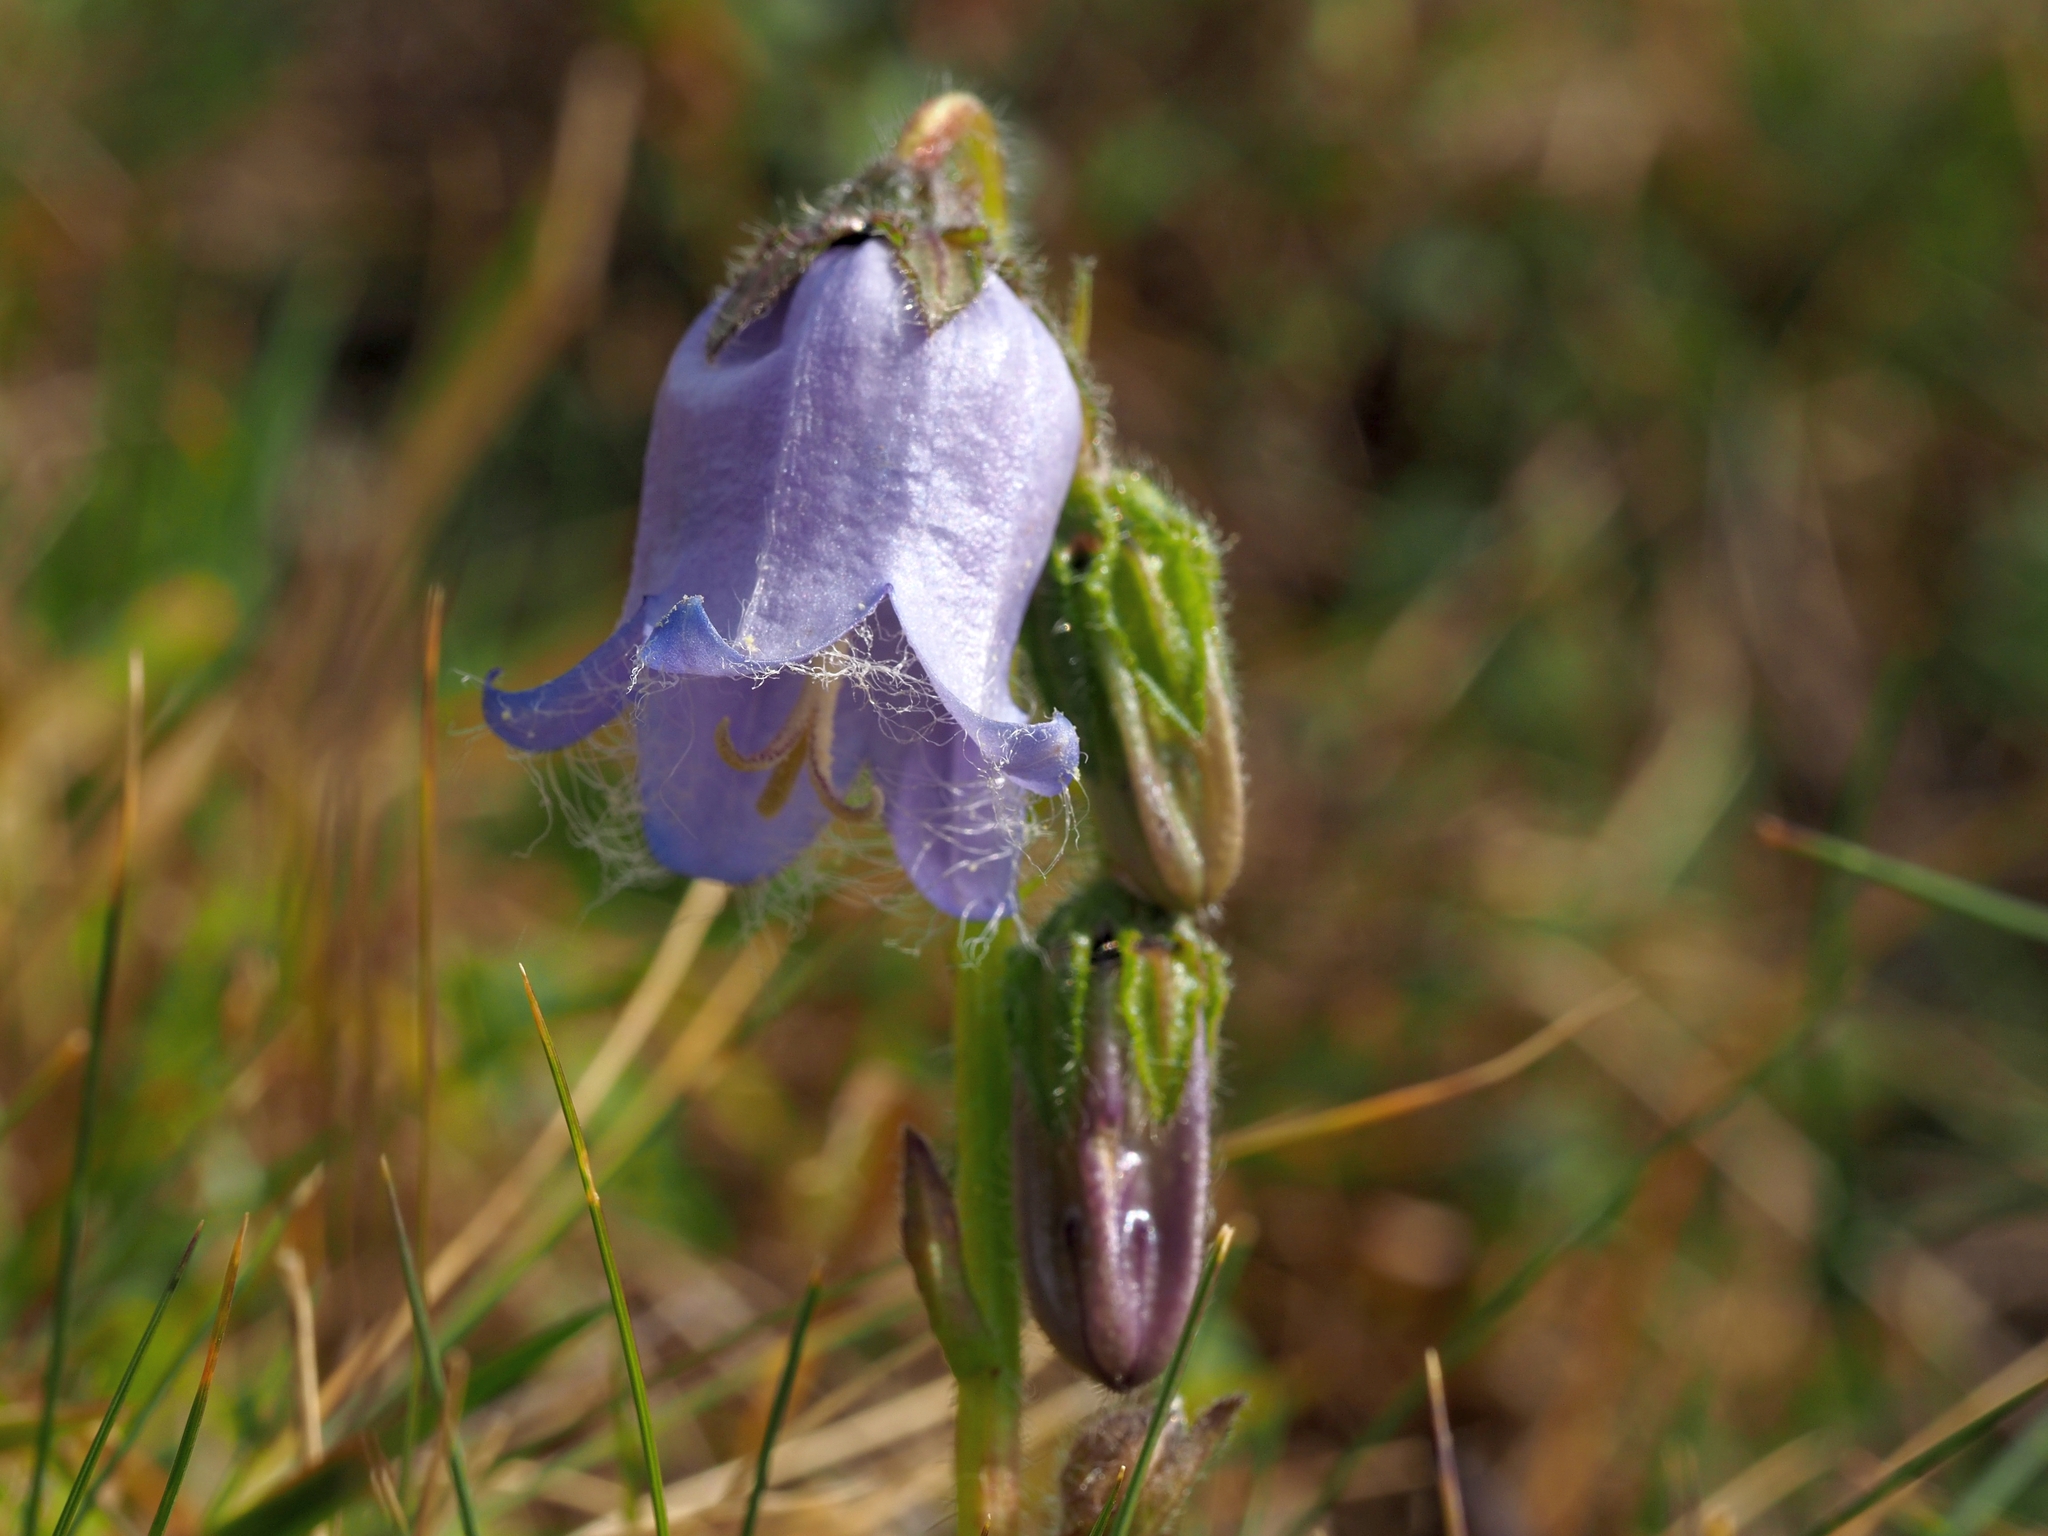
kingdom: Plantae
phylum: Tracheophyta
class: Magnoliopsida
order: Asterales
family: Campanulaceae
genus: Campanula
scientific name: Campanula barbata
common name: Bearded bellflower
